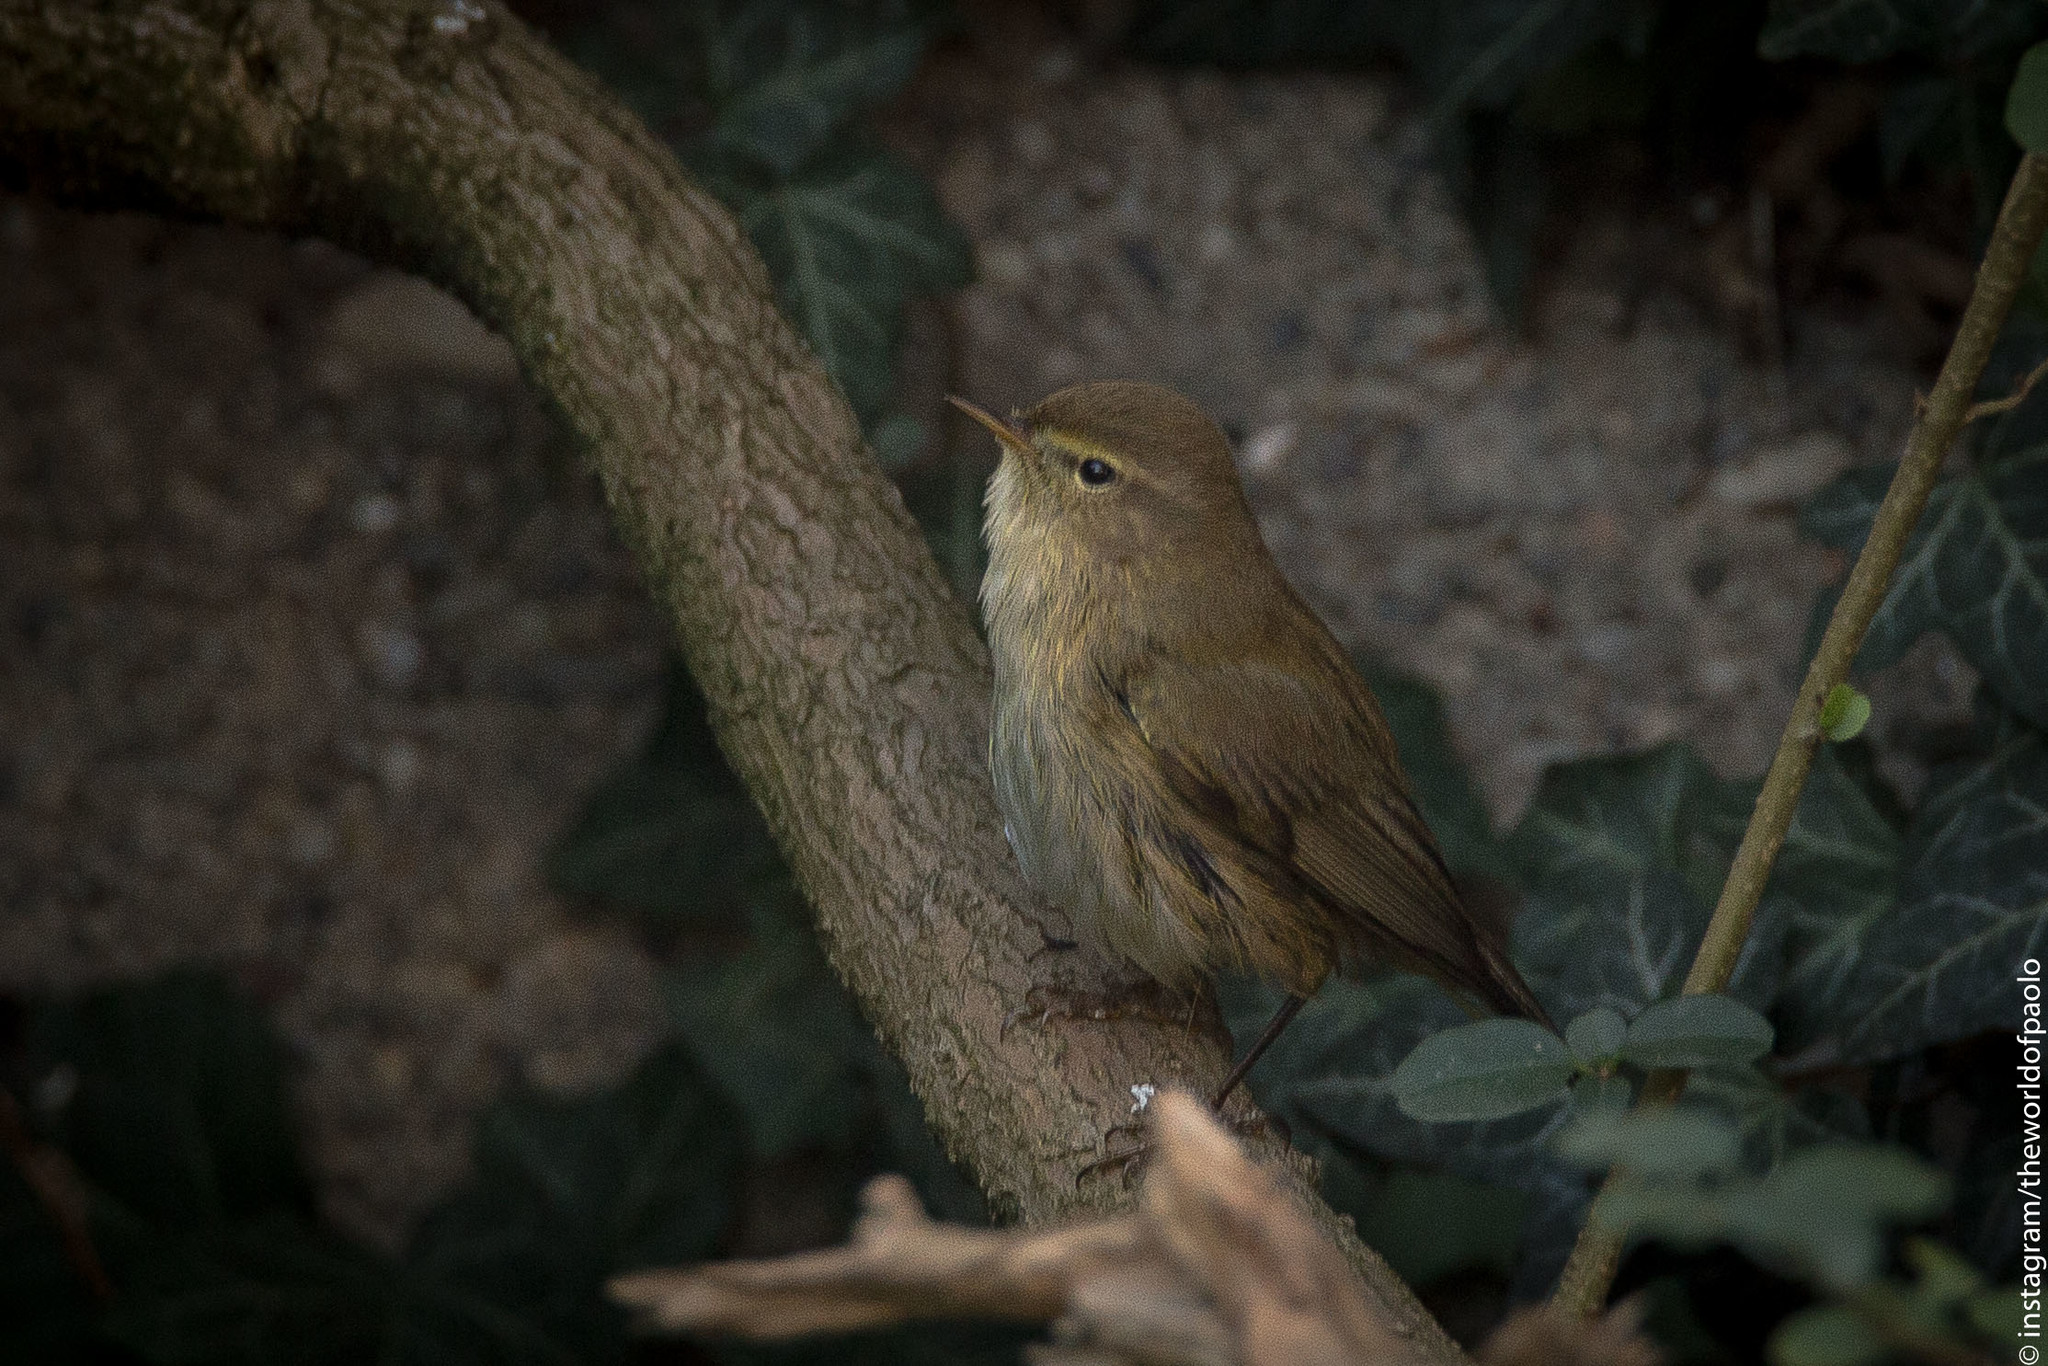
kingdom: Animalia
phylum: Chordata
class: Aves
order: Passeriformes
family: Phylloscopidae
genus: Phylloscopus
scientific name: Phylloscopus collybita
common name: Common chiffchaff
